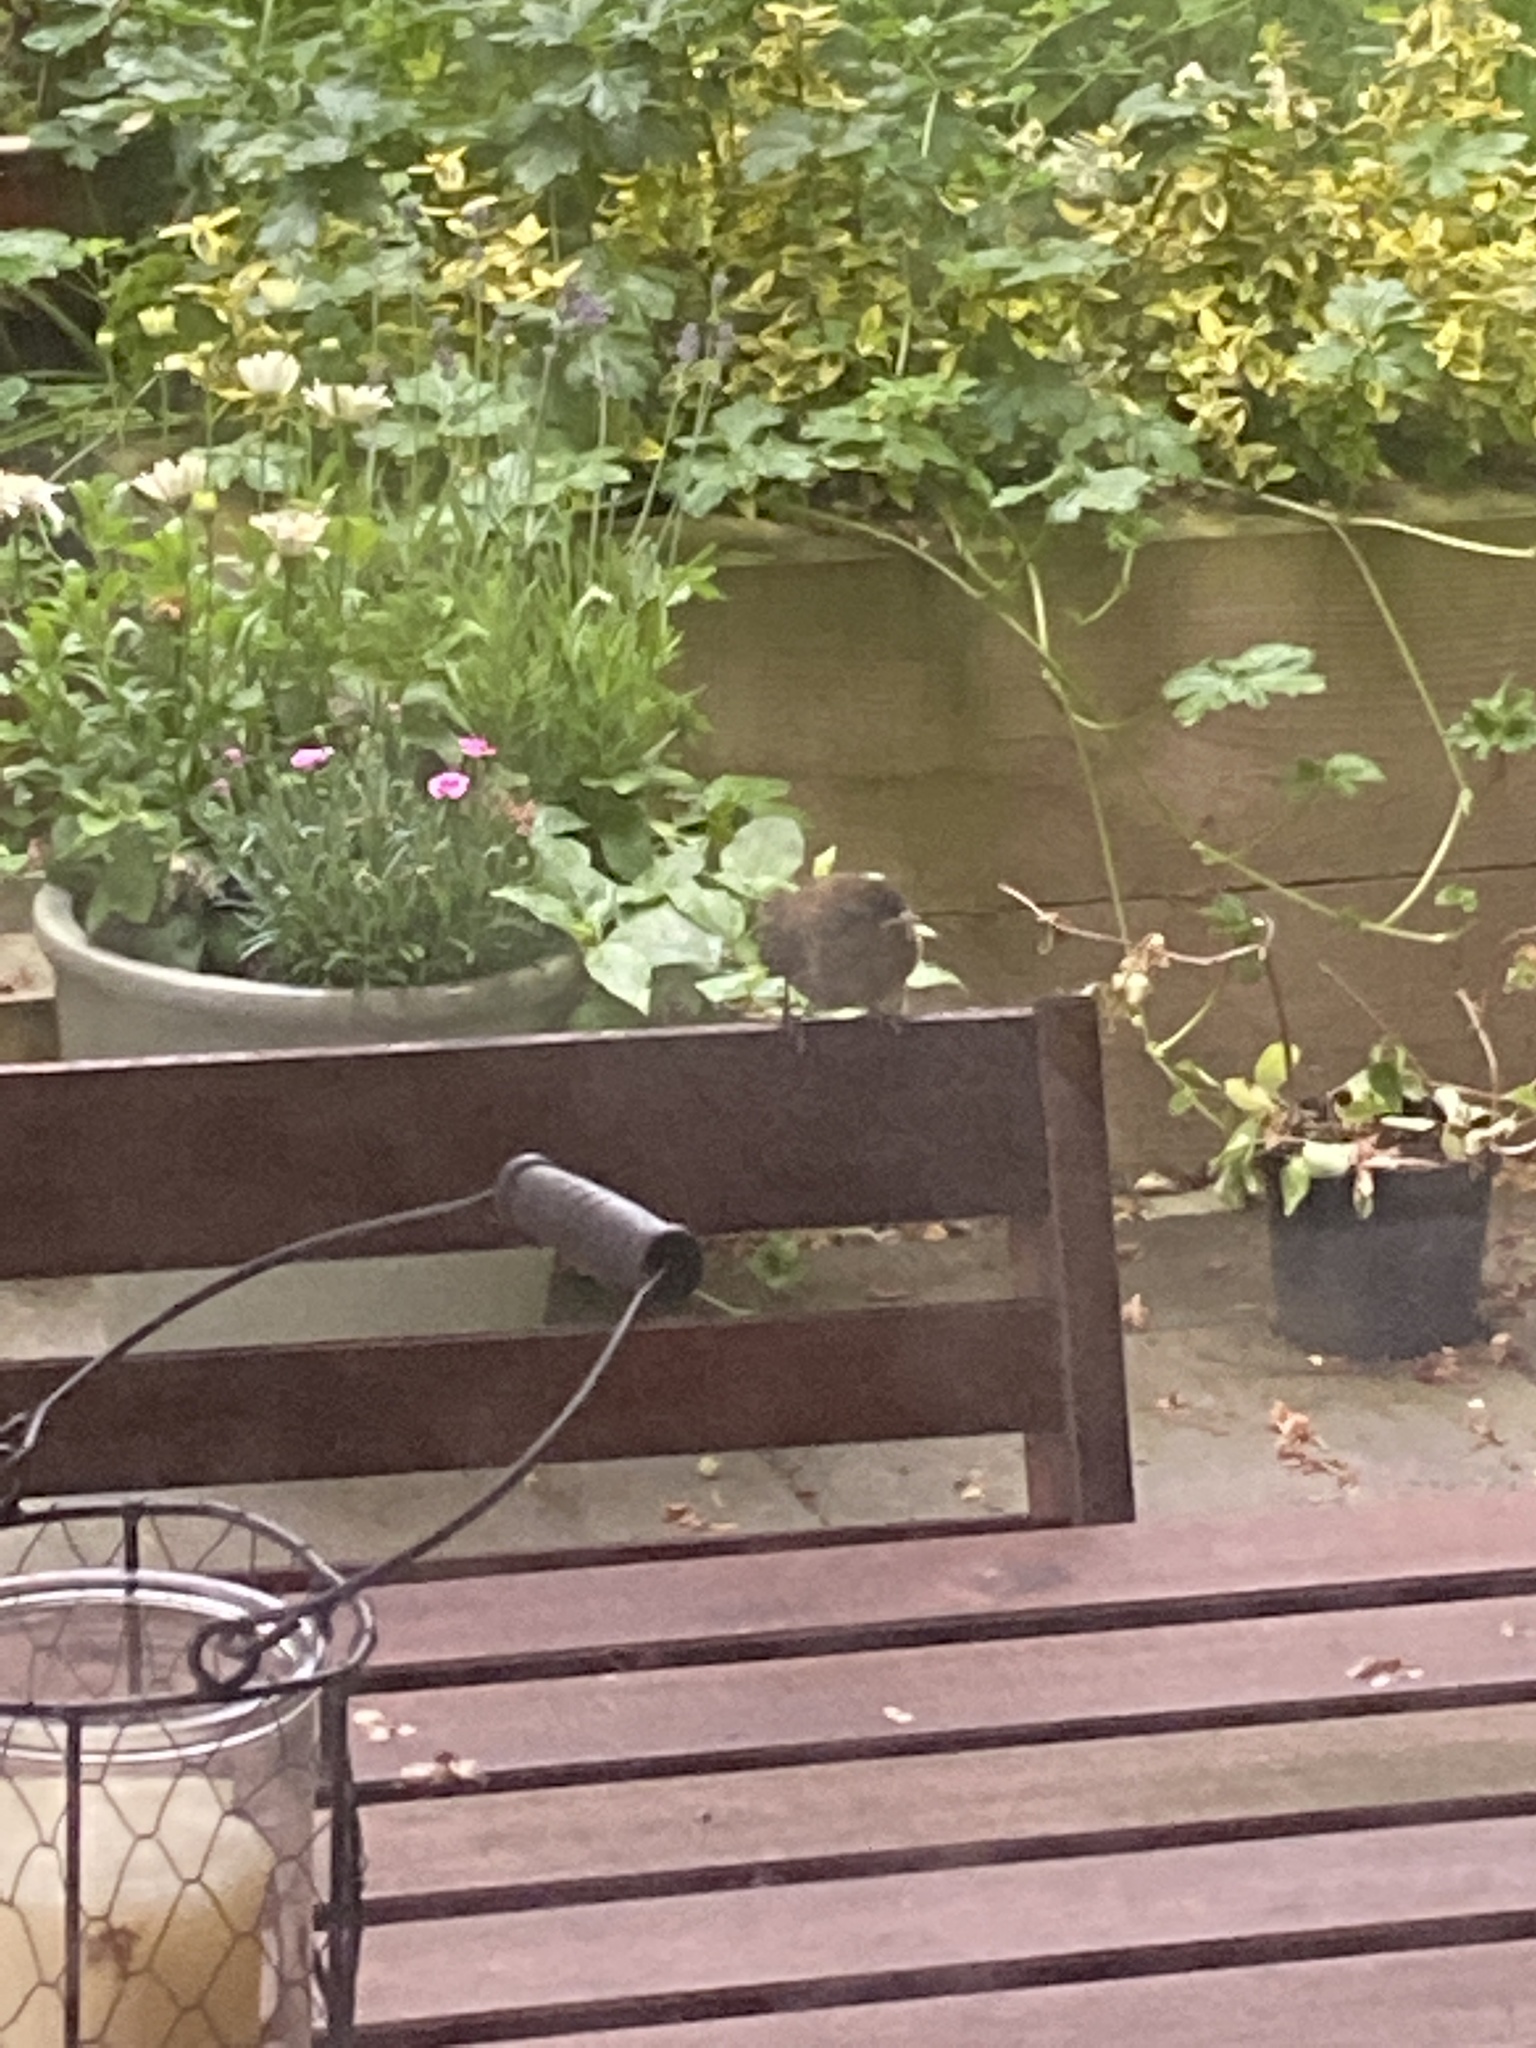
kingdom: Animalia
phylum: Chordata
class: Aves
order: Passeriformes
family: Troglodytidae
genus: Troglodytes
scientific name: Troglodytes troglodytes
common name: Eurasian wren
